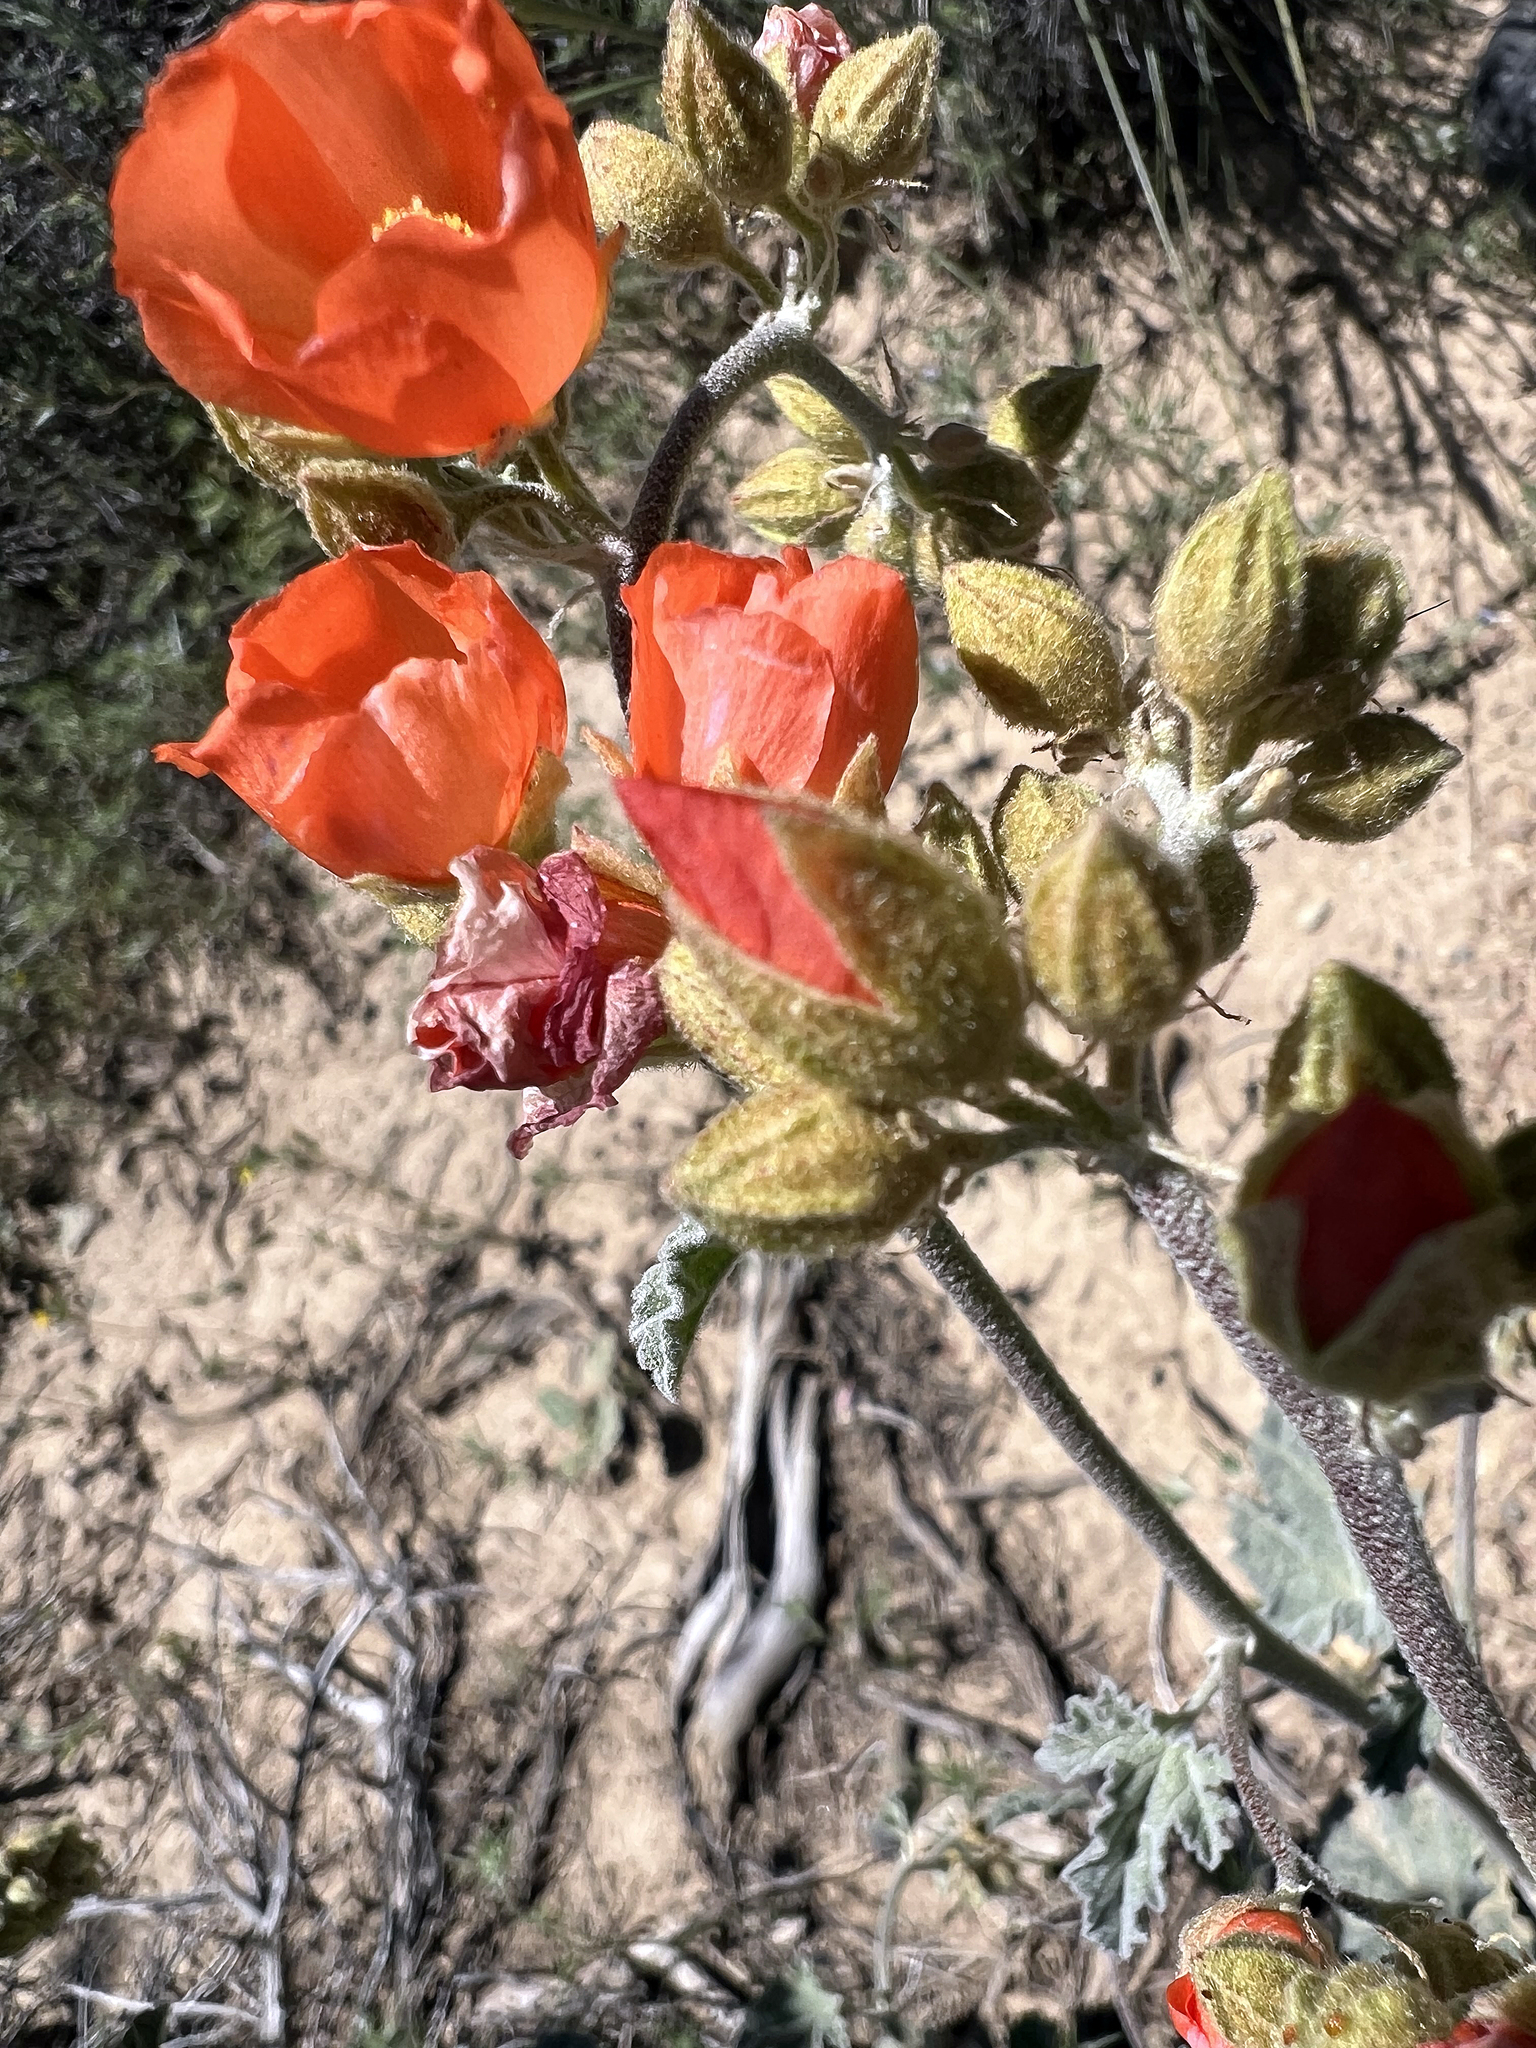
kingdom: Plantae
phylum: Tracheophyta
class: Magnoliopsida
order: Malvales
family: Malvaceae
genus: Sphaeralcea
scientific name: Sphaeralcea ambigua
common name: Apricot globe-mallow
